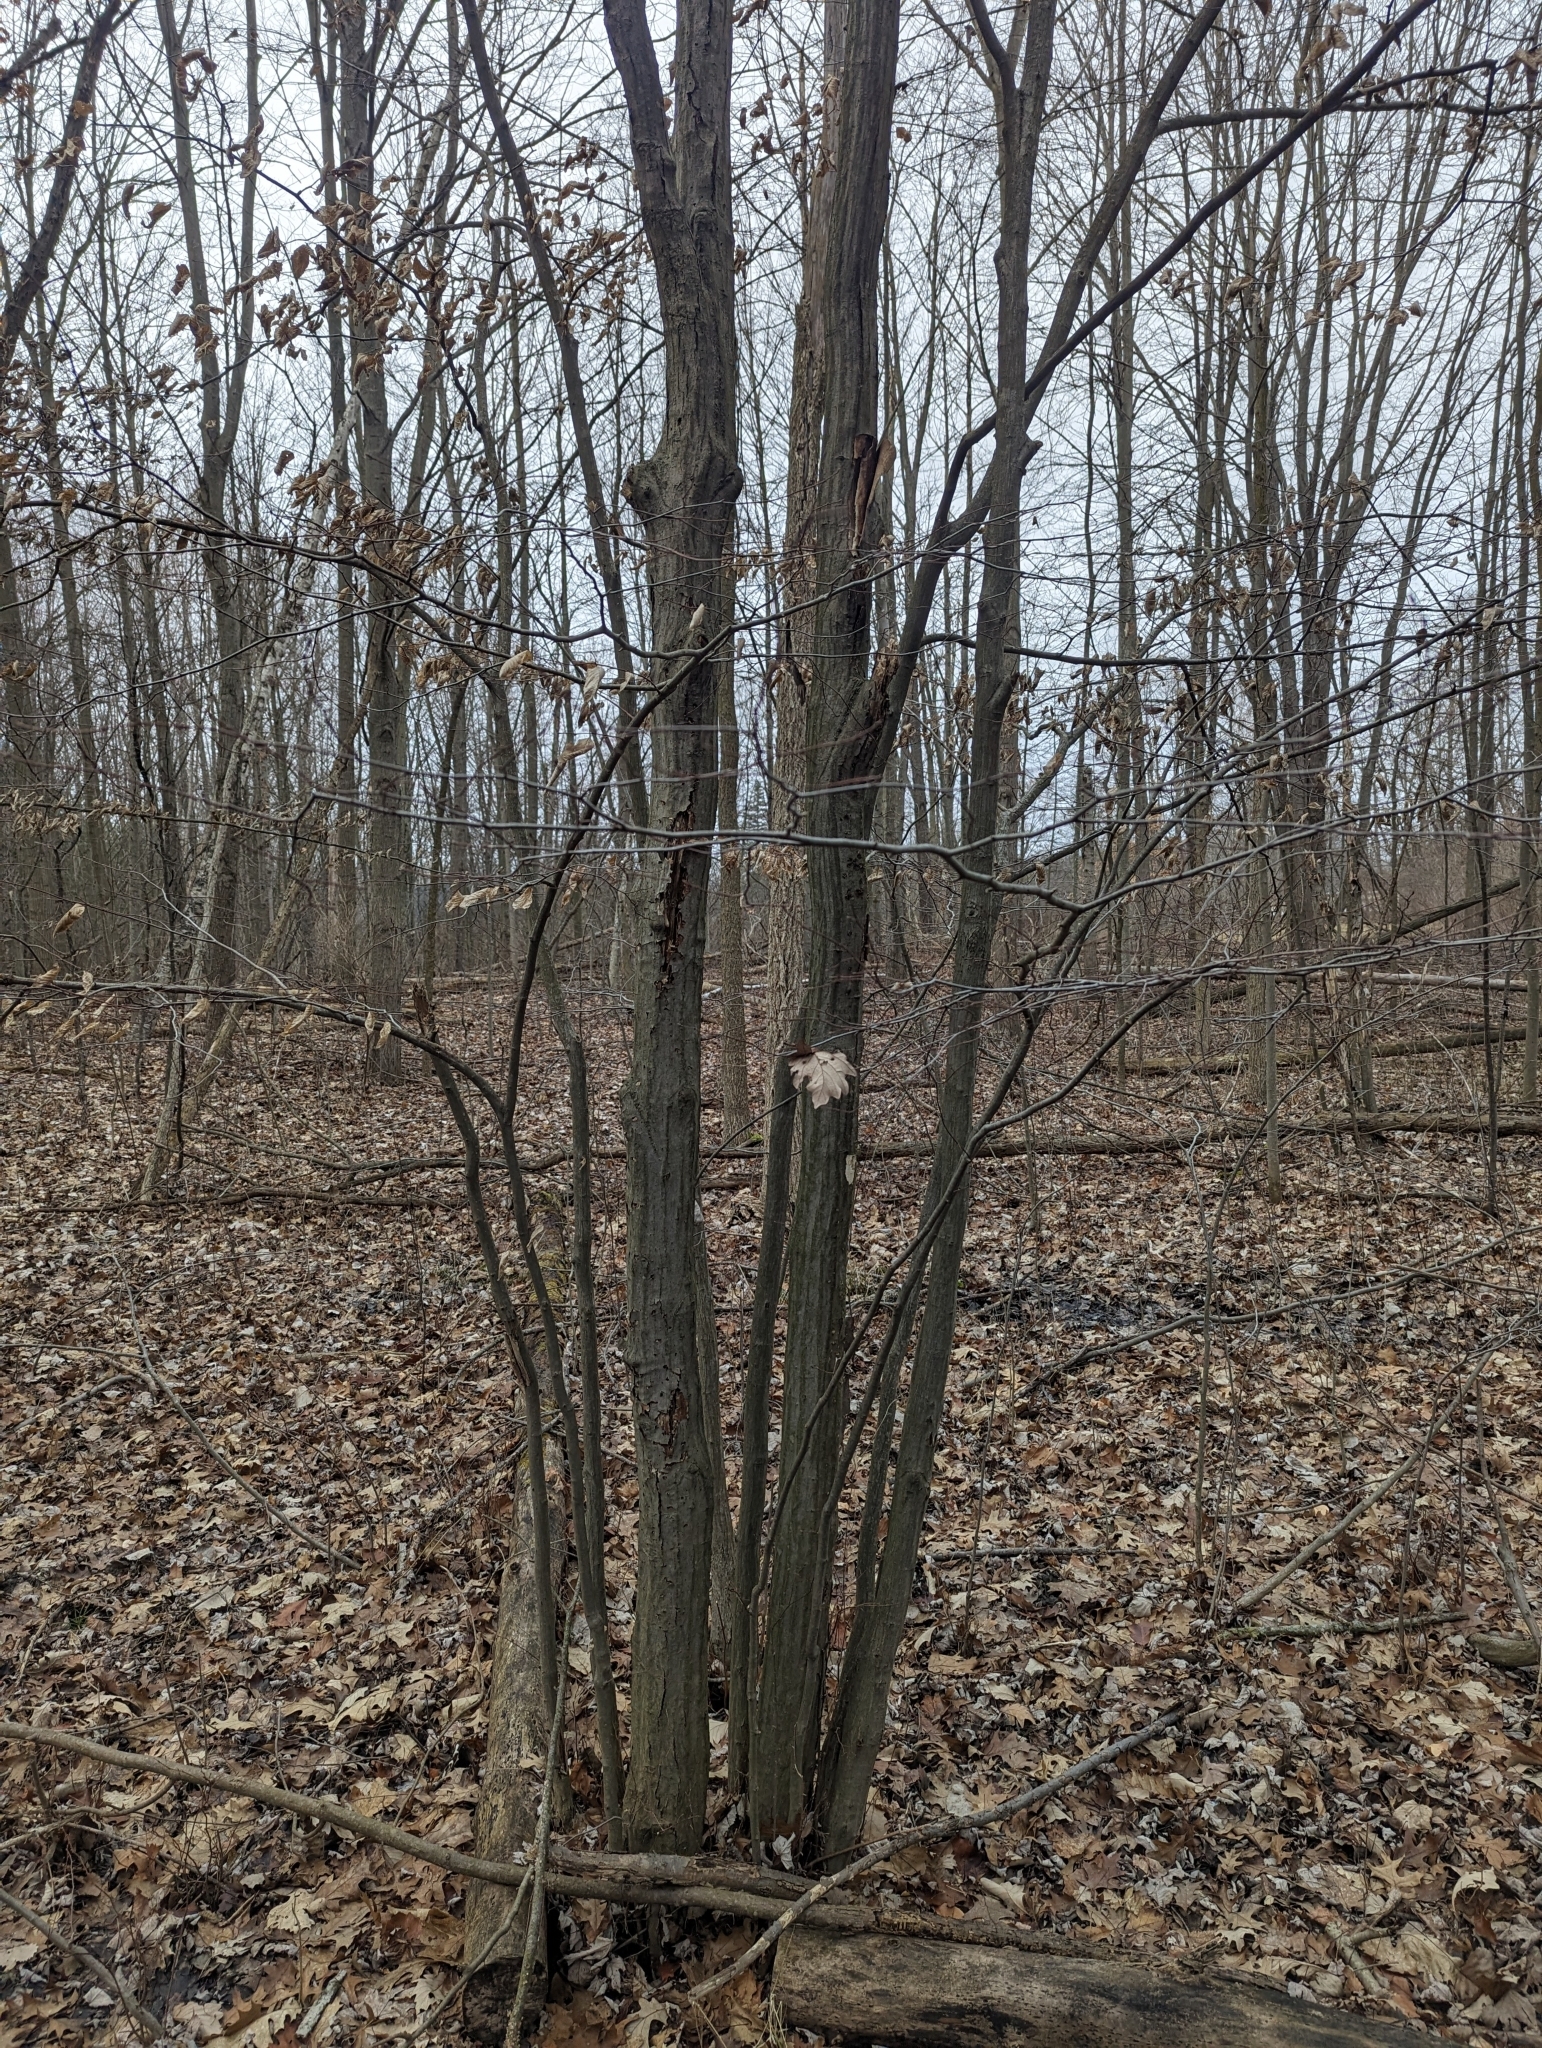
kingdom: Plantae
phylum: Tracheophyta
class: Magnoliopsida
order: Fagales
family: Betulaceae
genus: Carpinus
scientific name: Carpinus caroliniana
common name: American hornbeam
